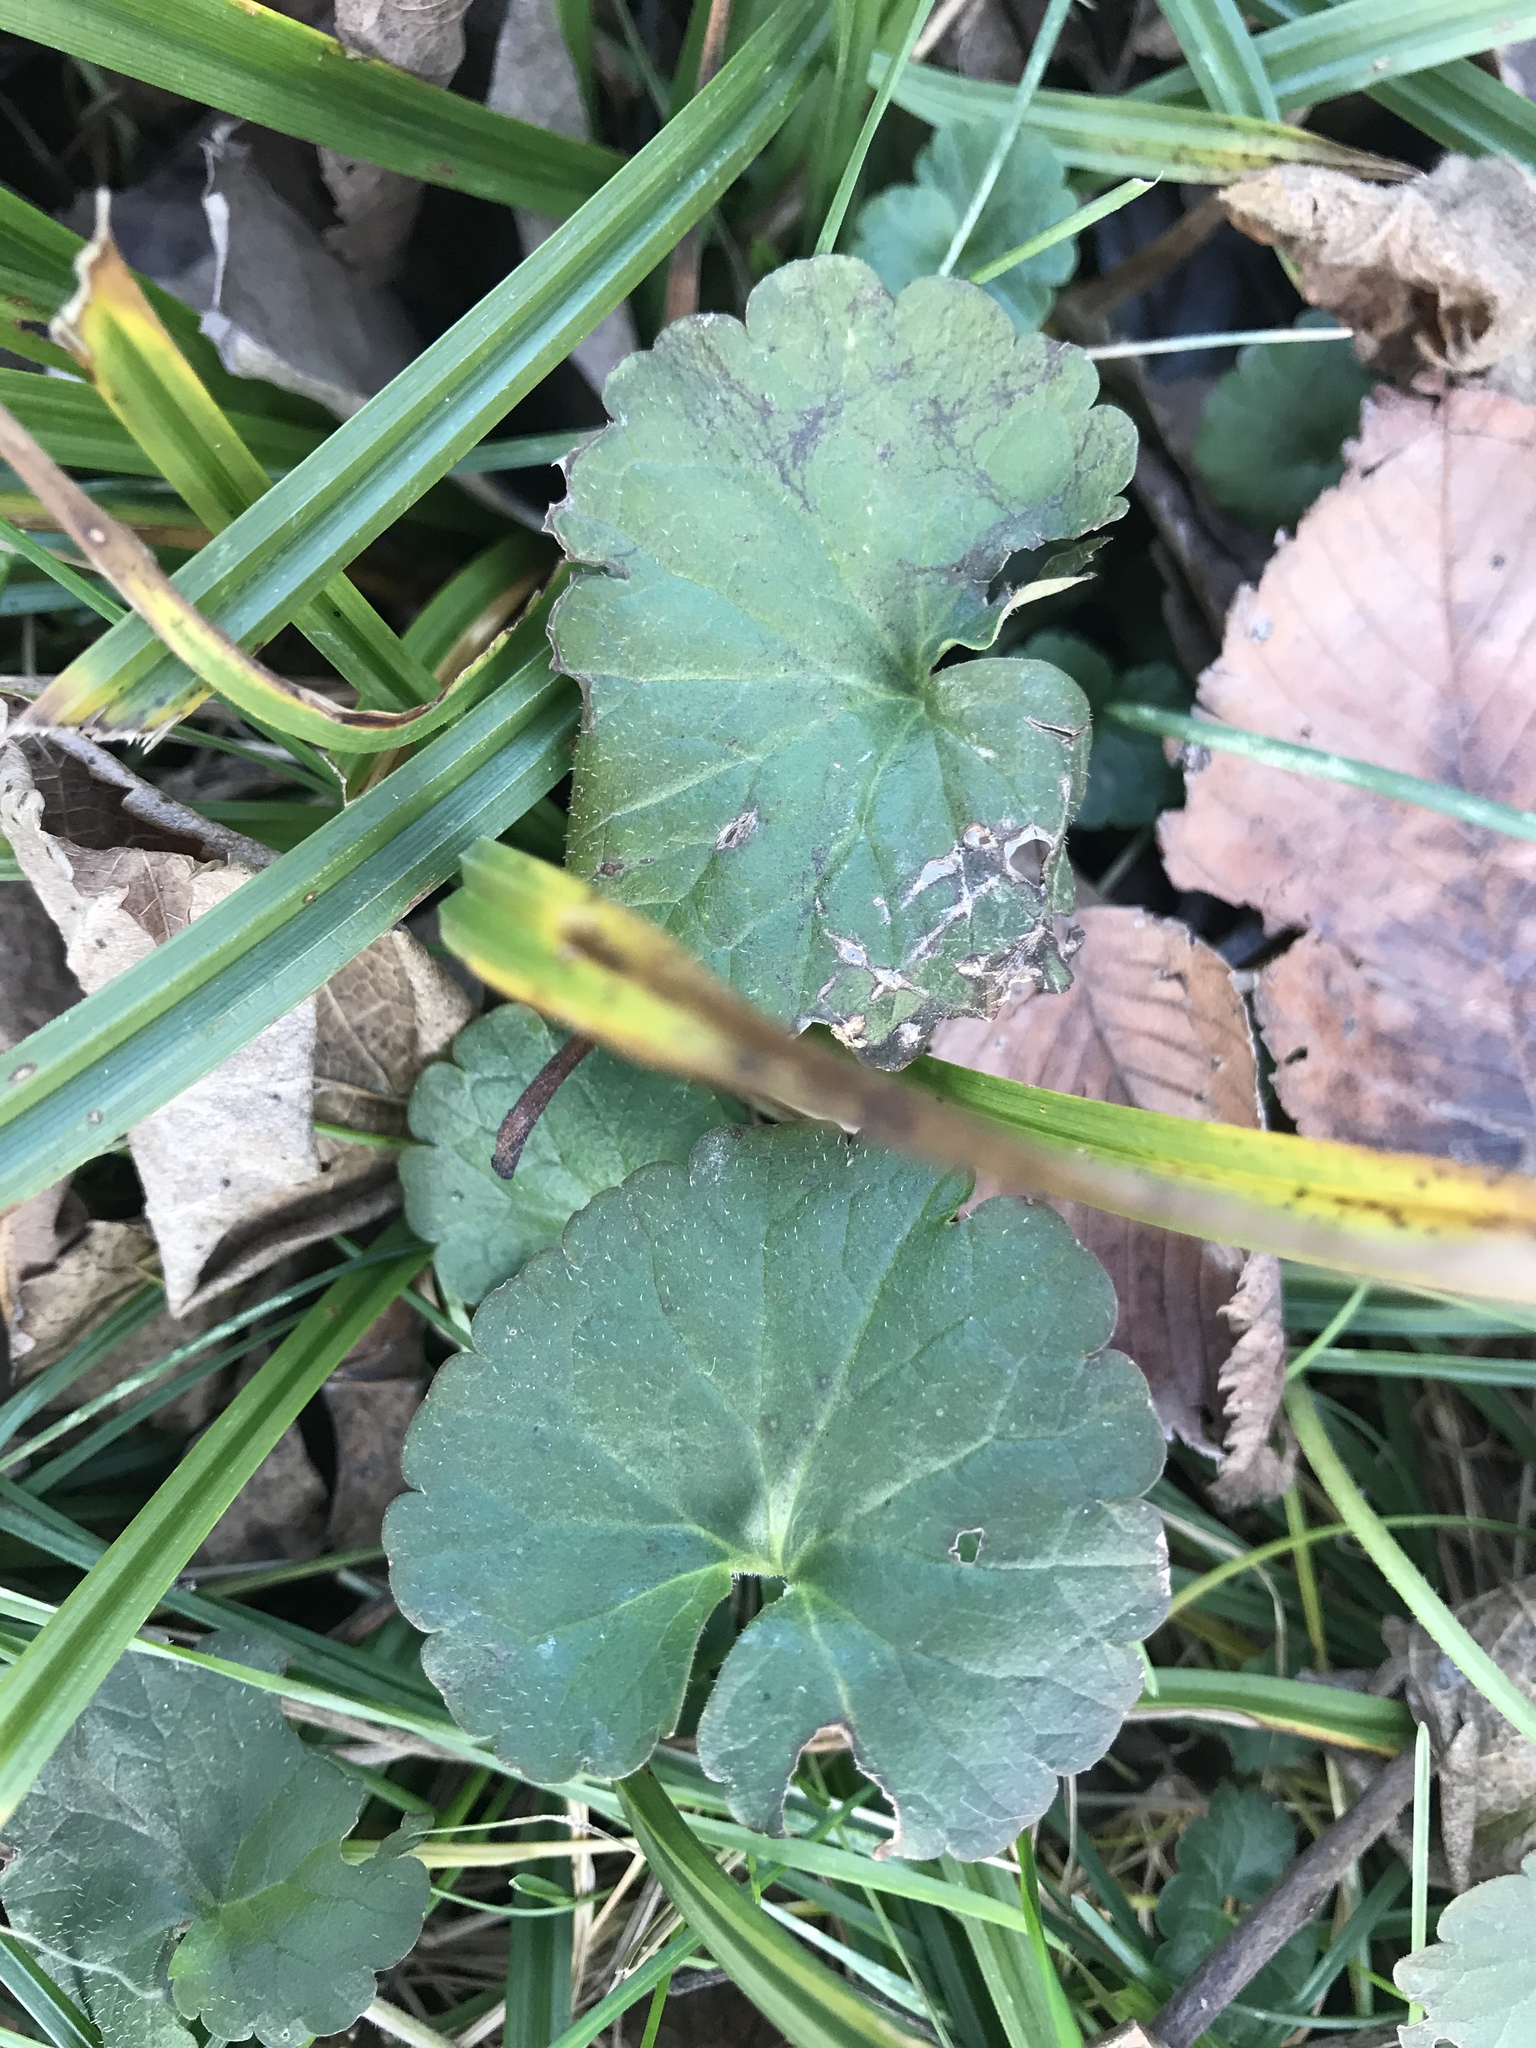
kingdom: Plantae
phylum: Tracheophyta
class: Magnoliopsida
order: Lamiales
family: Lamiaceae
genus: Glechoma
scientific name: Glechoma hederacea
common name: Ground ivy
